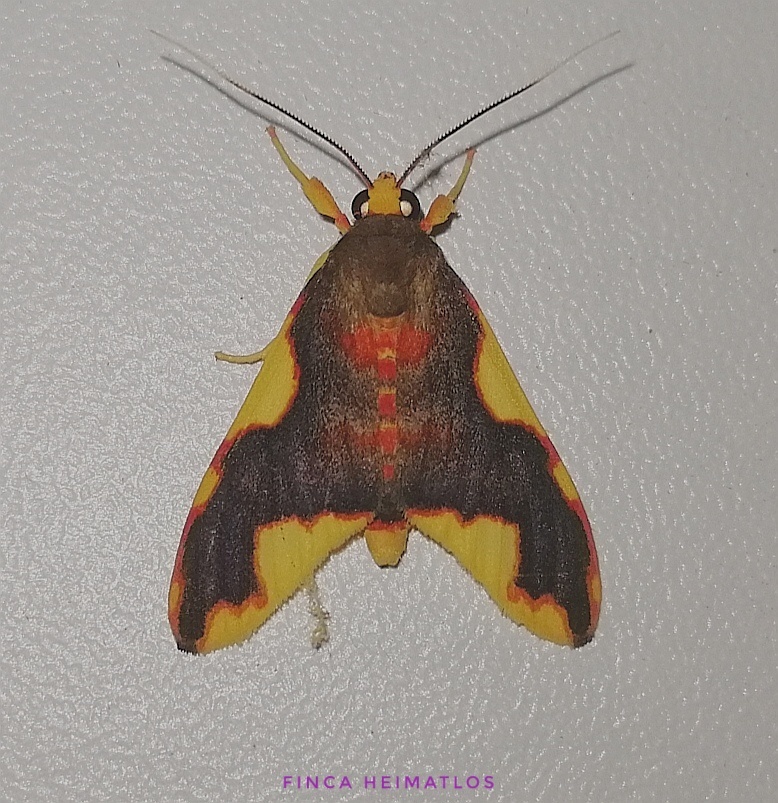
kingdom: Animalia
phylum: Arthropoda
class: Insecta
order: Lepidoptera
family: Erebidae
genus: Hyponerita
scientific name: Hyponerita declivis
